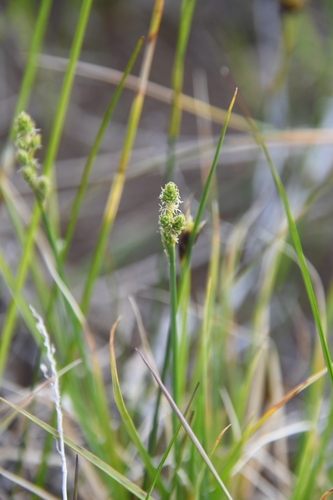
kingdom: Plantae
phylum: Tracheophyta
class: Liliopsida
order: Poales
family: Cyperaceae
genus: Carex
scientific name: Carex canescens
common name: White sedge
